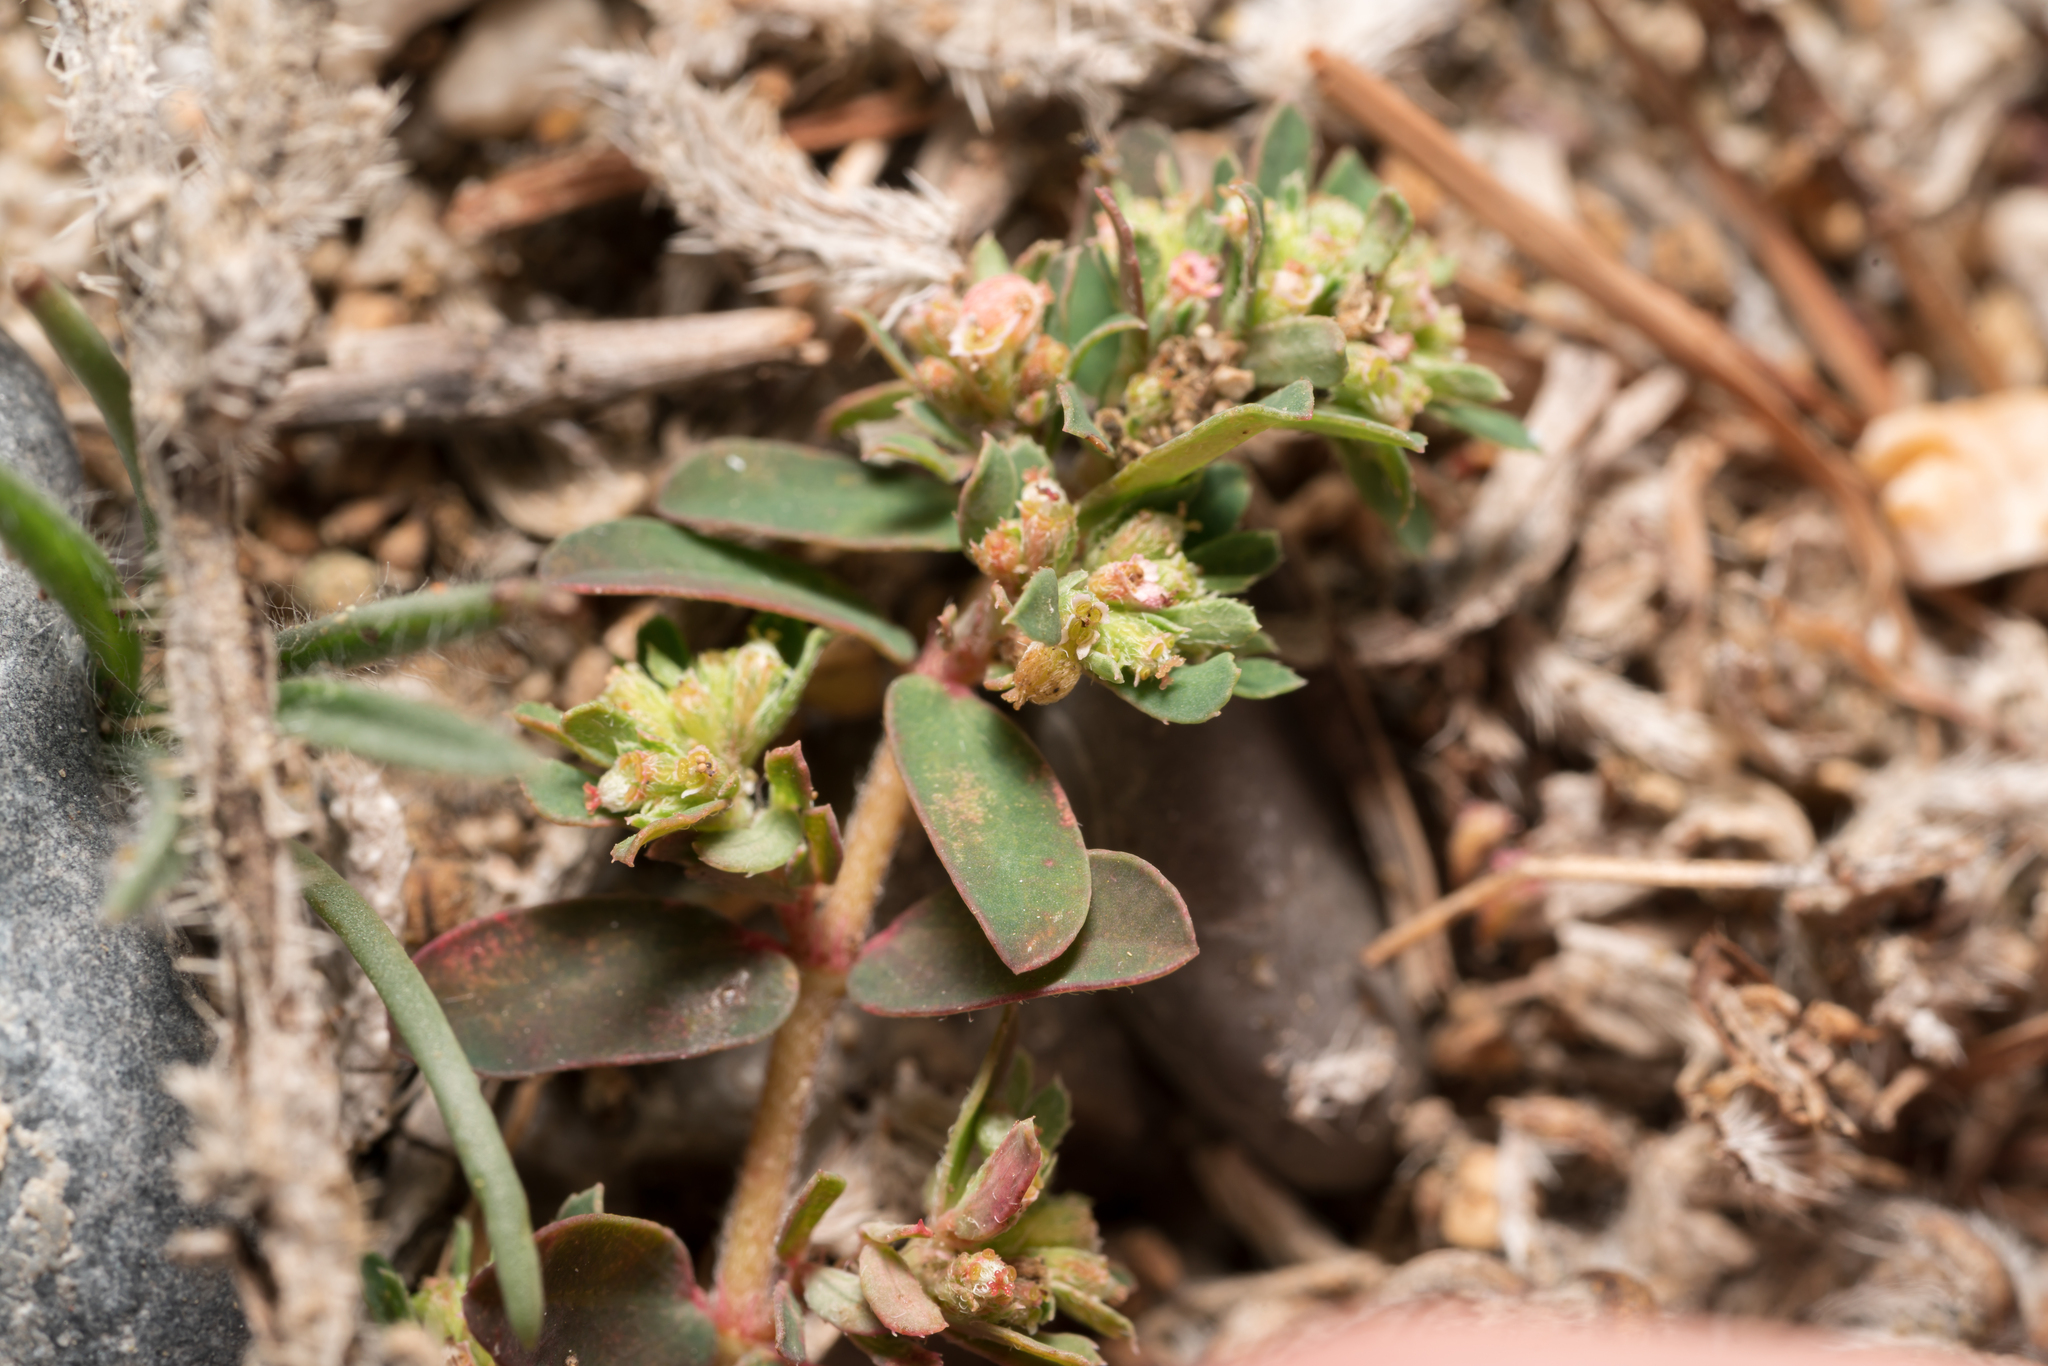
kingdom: Plantae
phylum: Tracheophyta
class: Magnoliopsida
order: Malpighiales
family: Euphorbiaceae
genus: Euphorbia
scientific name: Euphorbia maculata
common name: Spotted spurge
